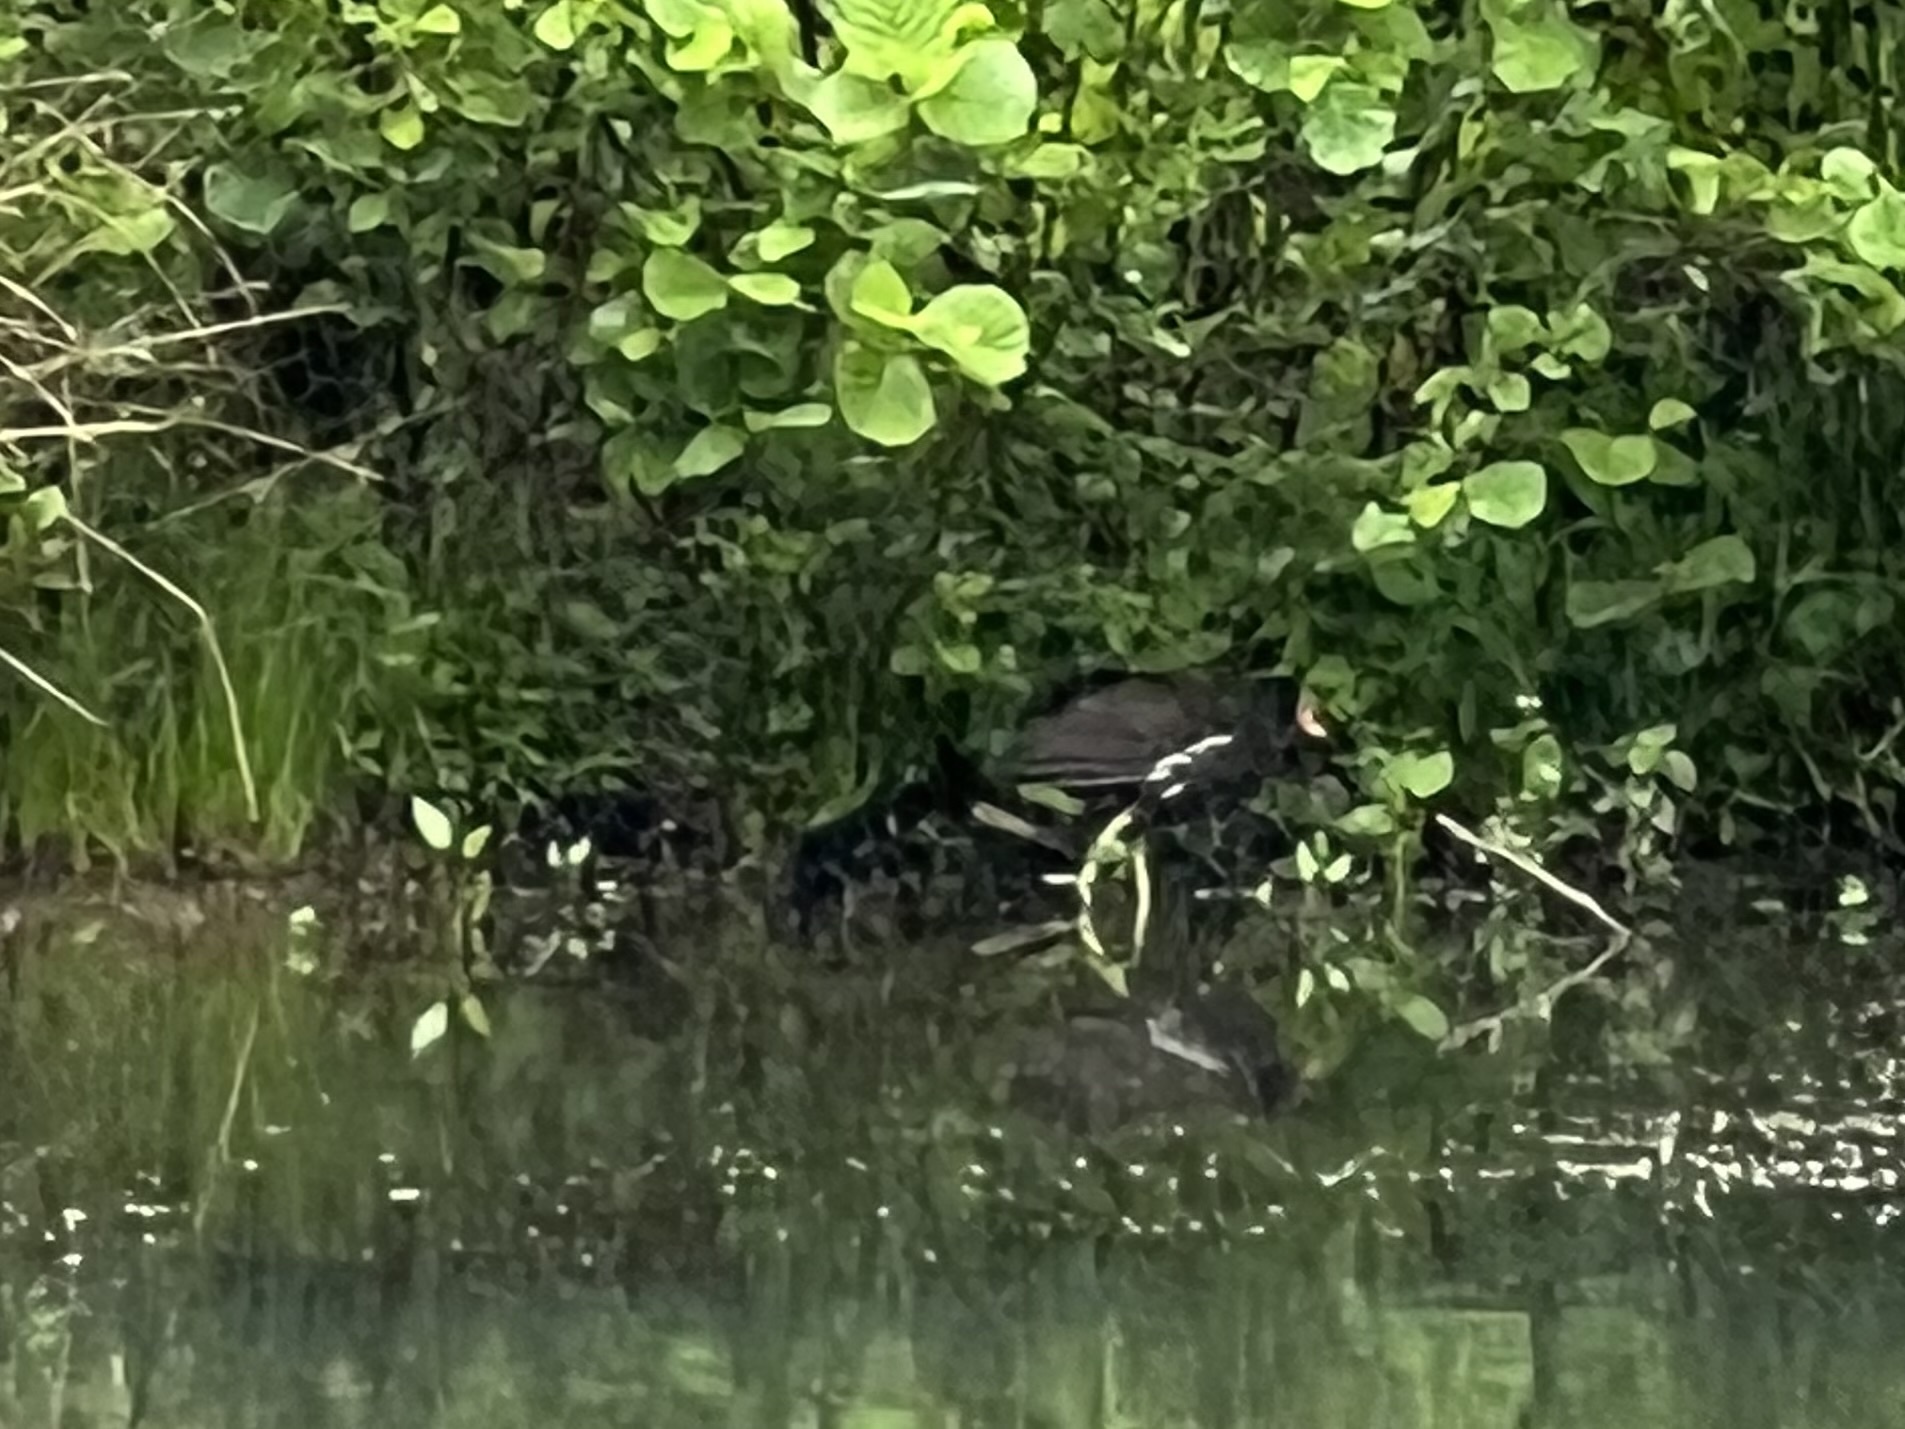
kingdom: Animalia
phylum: Chordata
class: Aves
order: Gruiformes
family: Rallidae
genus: Gallinula
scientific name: Gallinula chloropus
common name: Common moorhen
